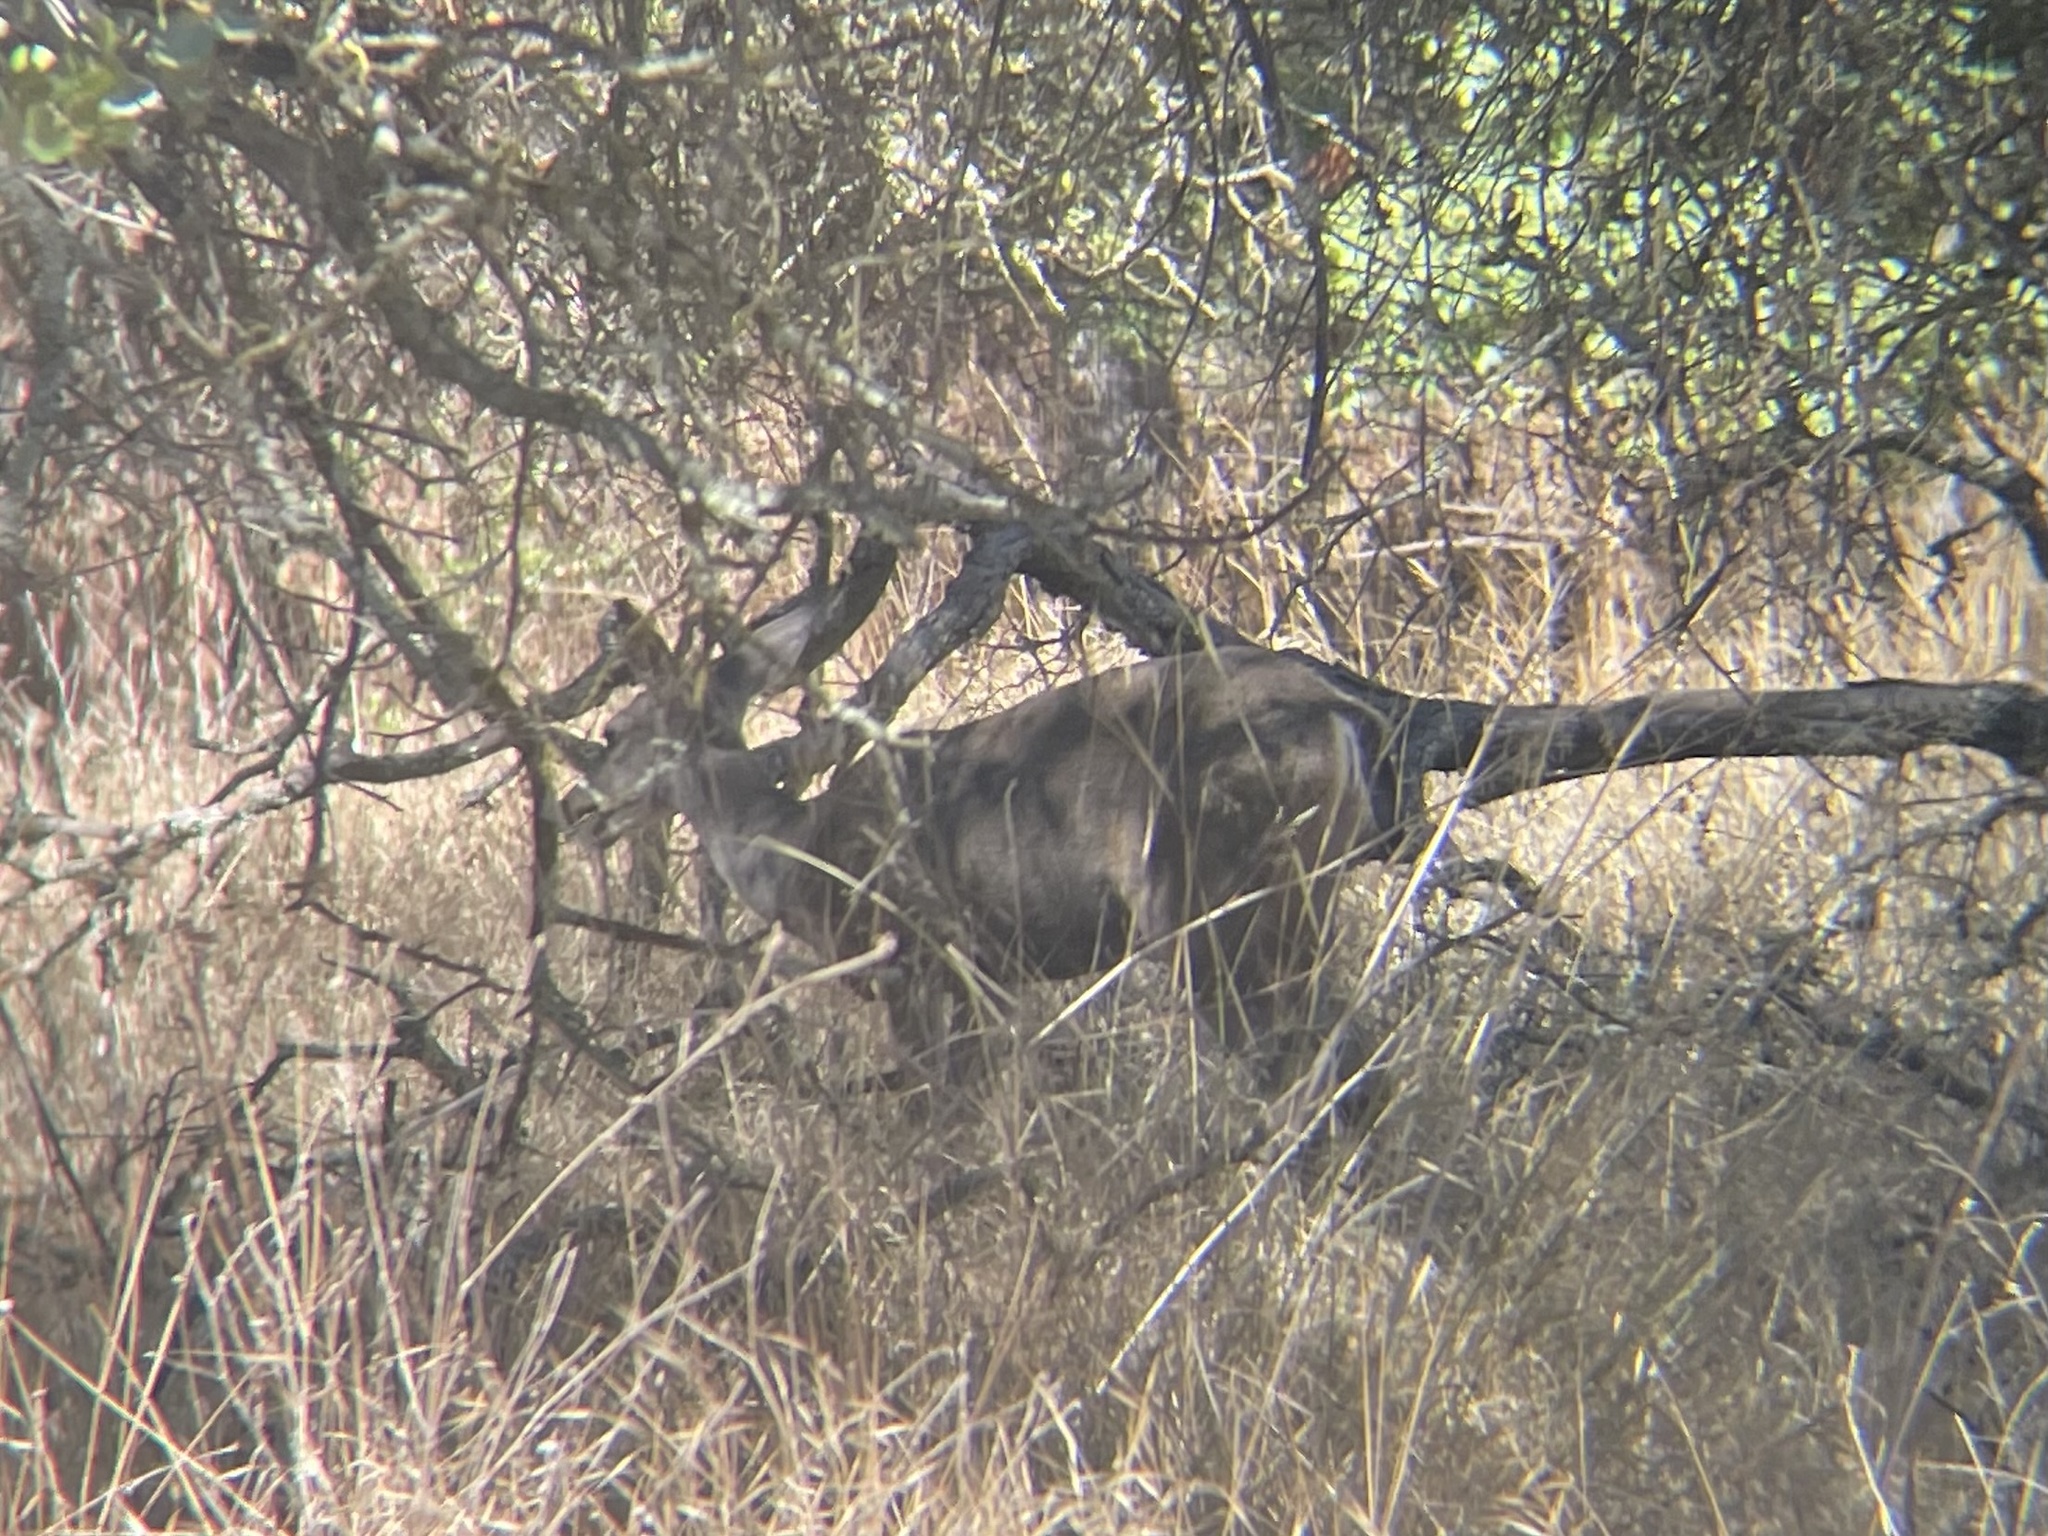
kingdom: Animalia
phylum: Chordata
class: Mammalia
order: Artiodactyla
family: Cervidae
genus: Odocoileus
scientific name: Odocoileus hemionus
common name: Mule deer
